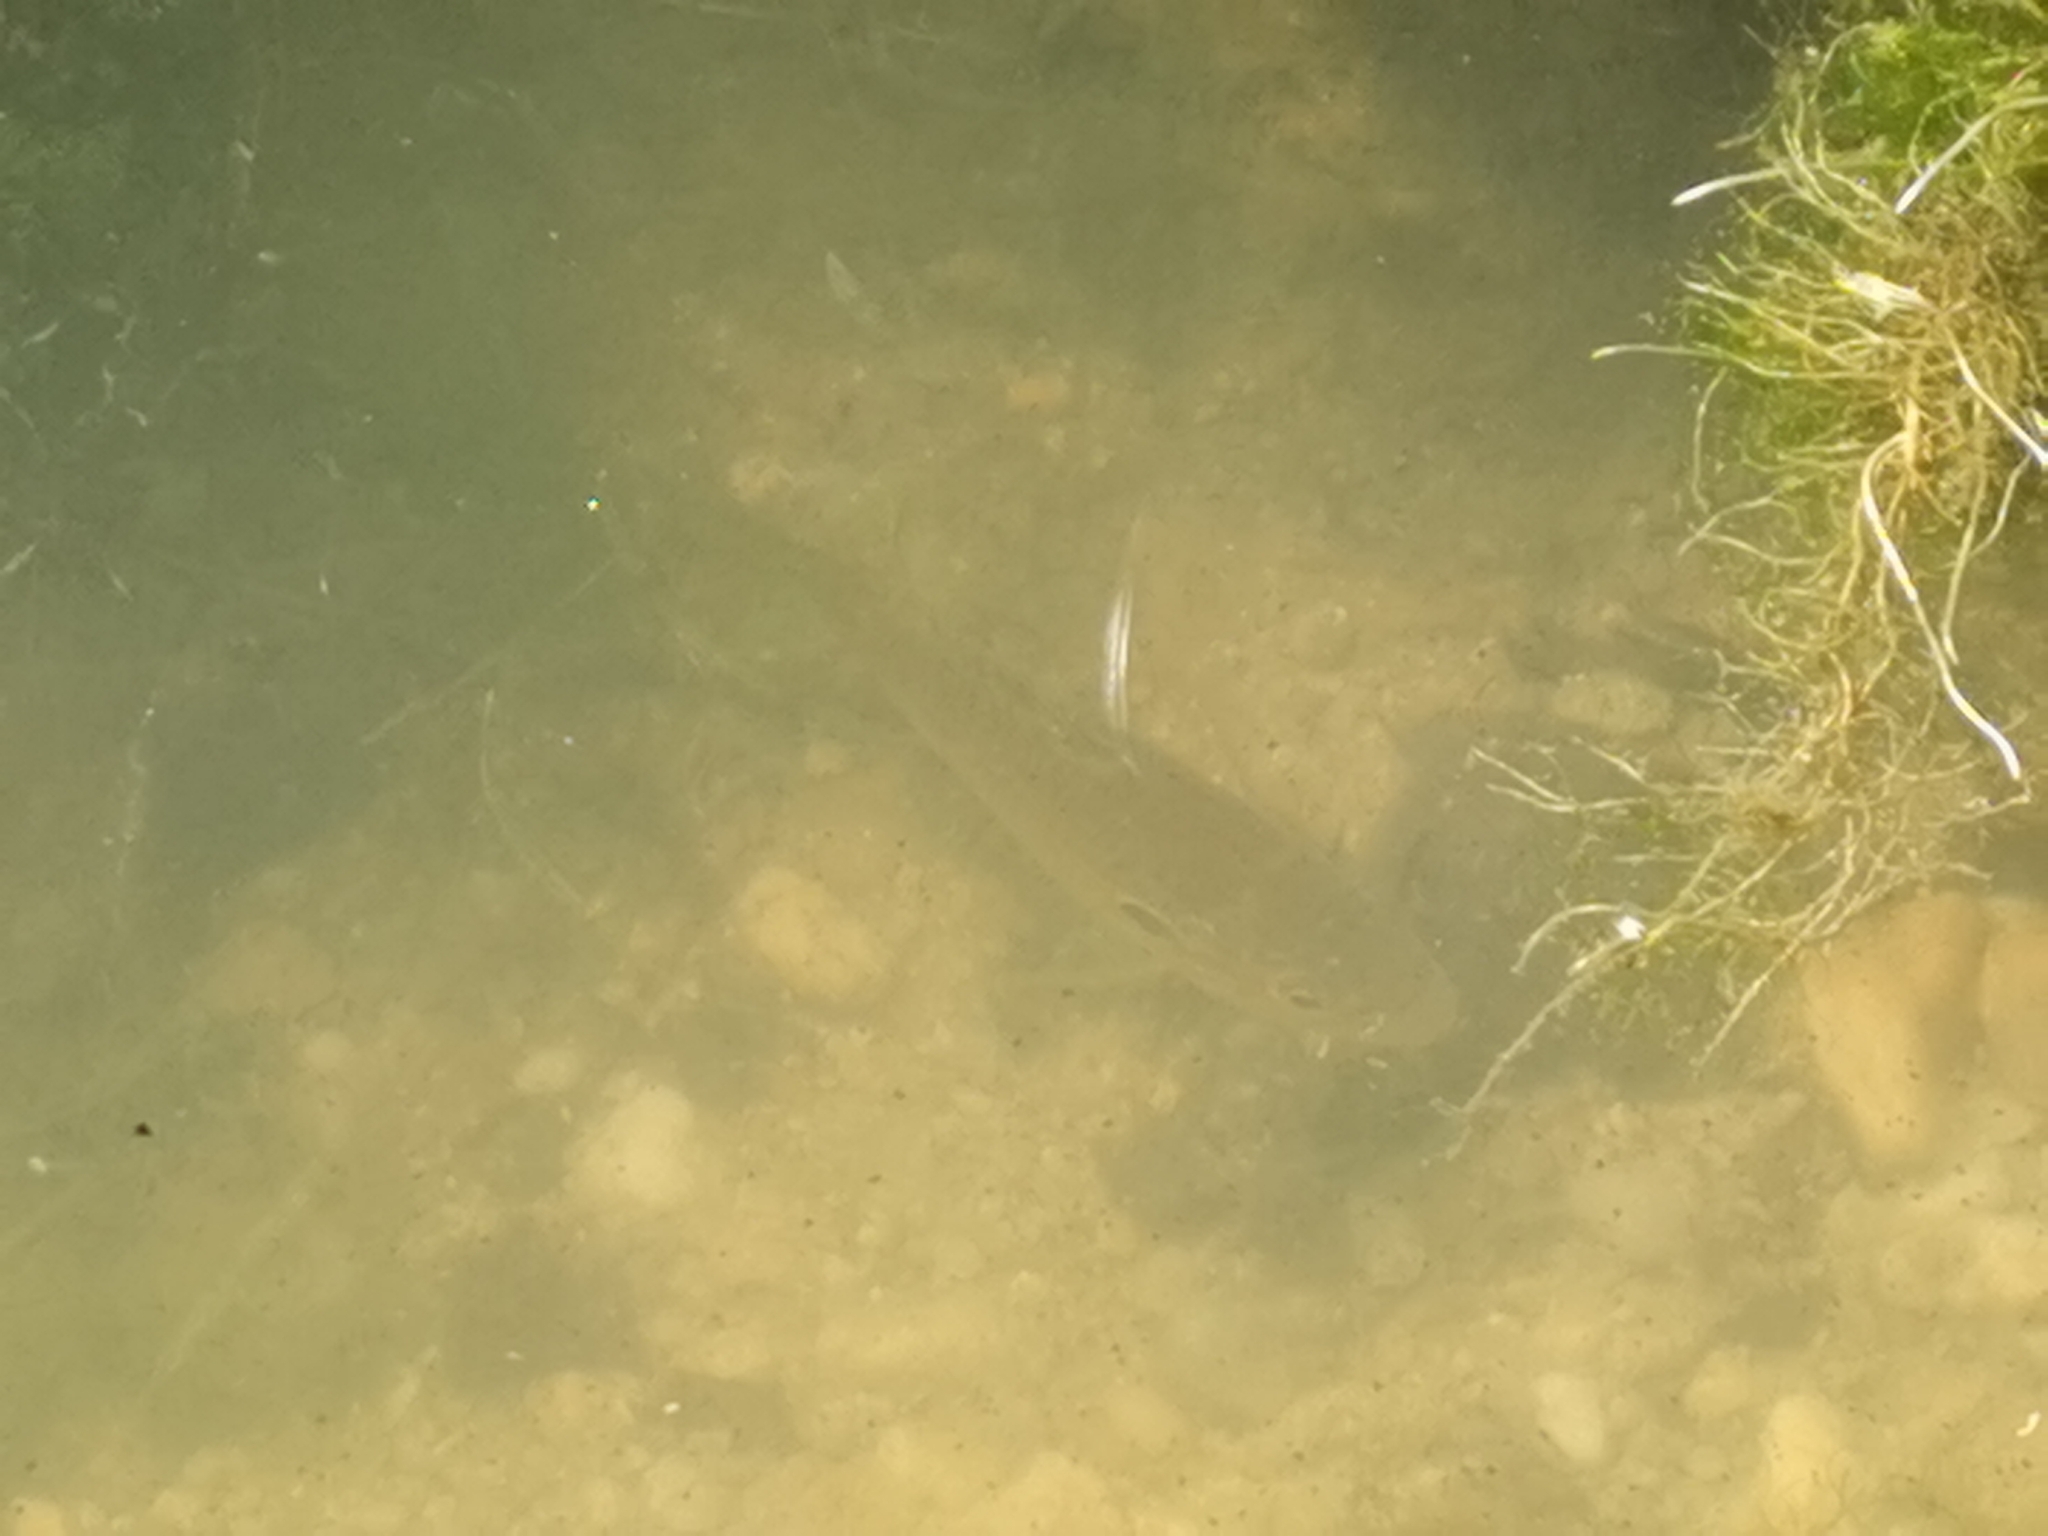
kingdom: Animalia
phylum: Chordata
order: Perciformes
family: Centrarchidae
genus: Lepomis
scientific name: Lepomis gibbosus
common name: Pumpkinseed
